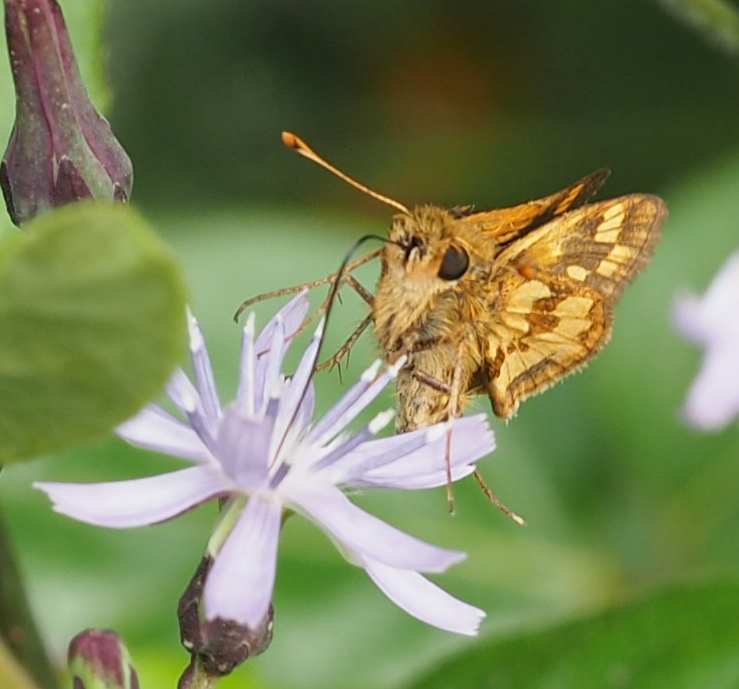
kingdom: Animalia
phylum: Arthropoda
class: Insecta
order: Lepidoptera
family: Hesperiidae
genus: Polites
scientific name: Polites coras
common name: Peck's skipper
